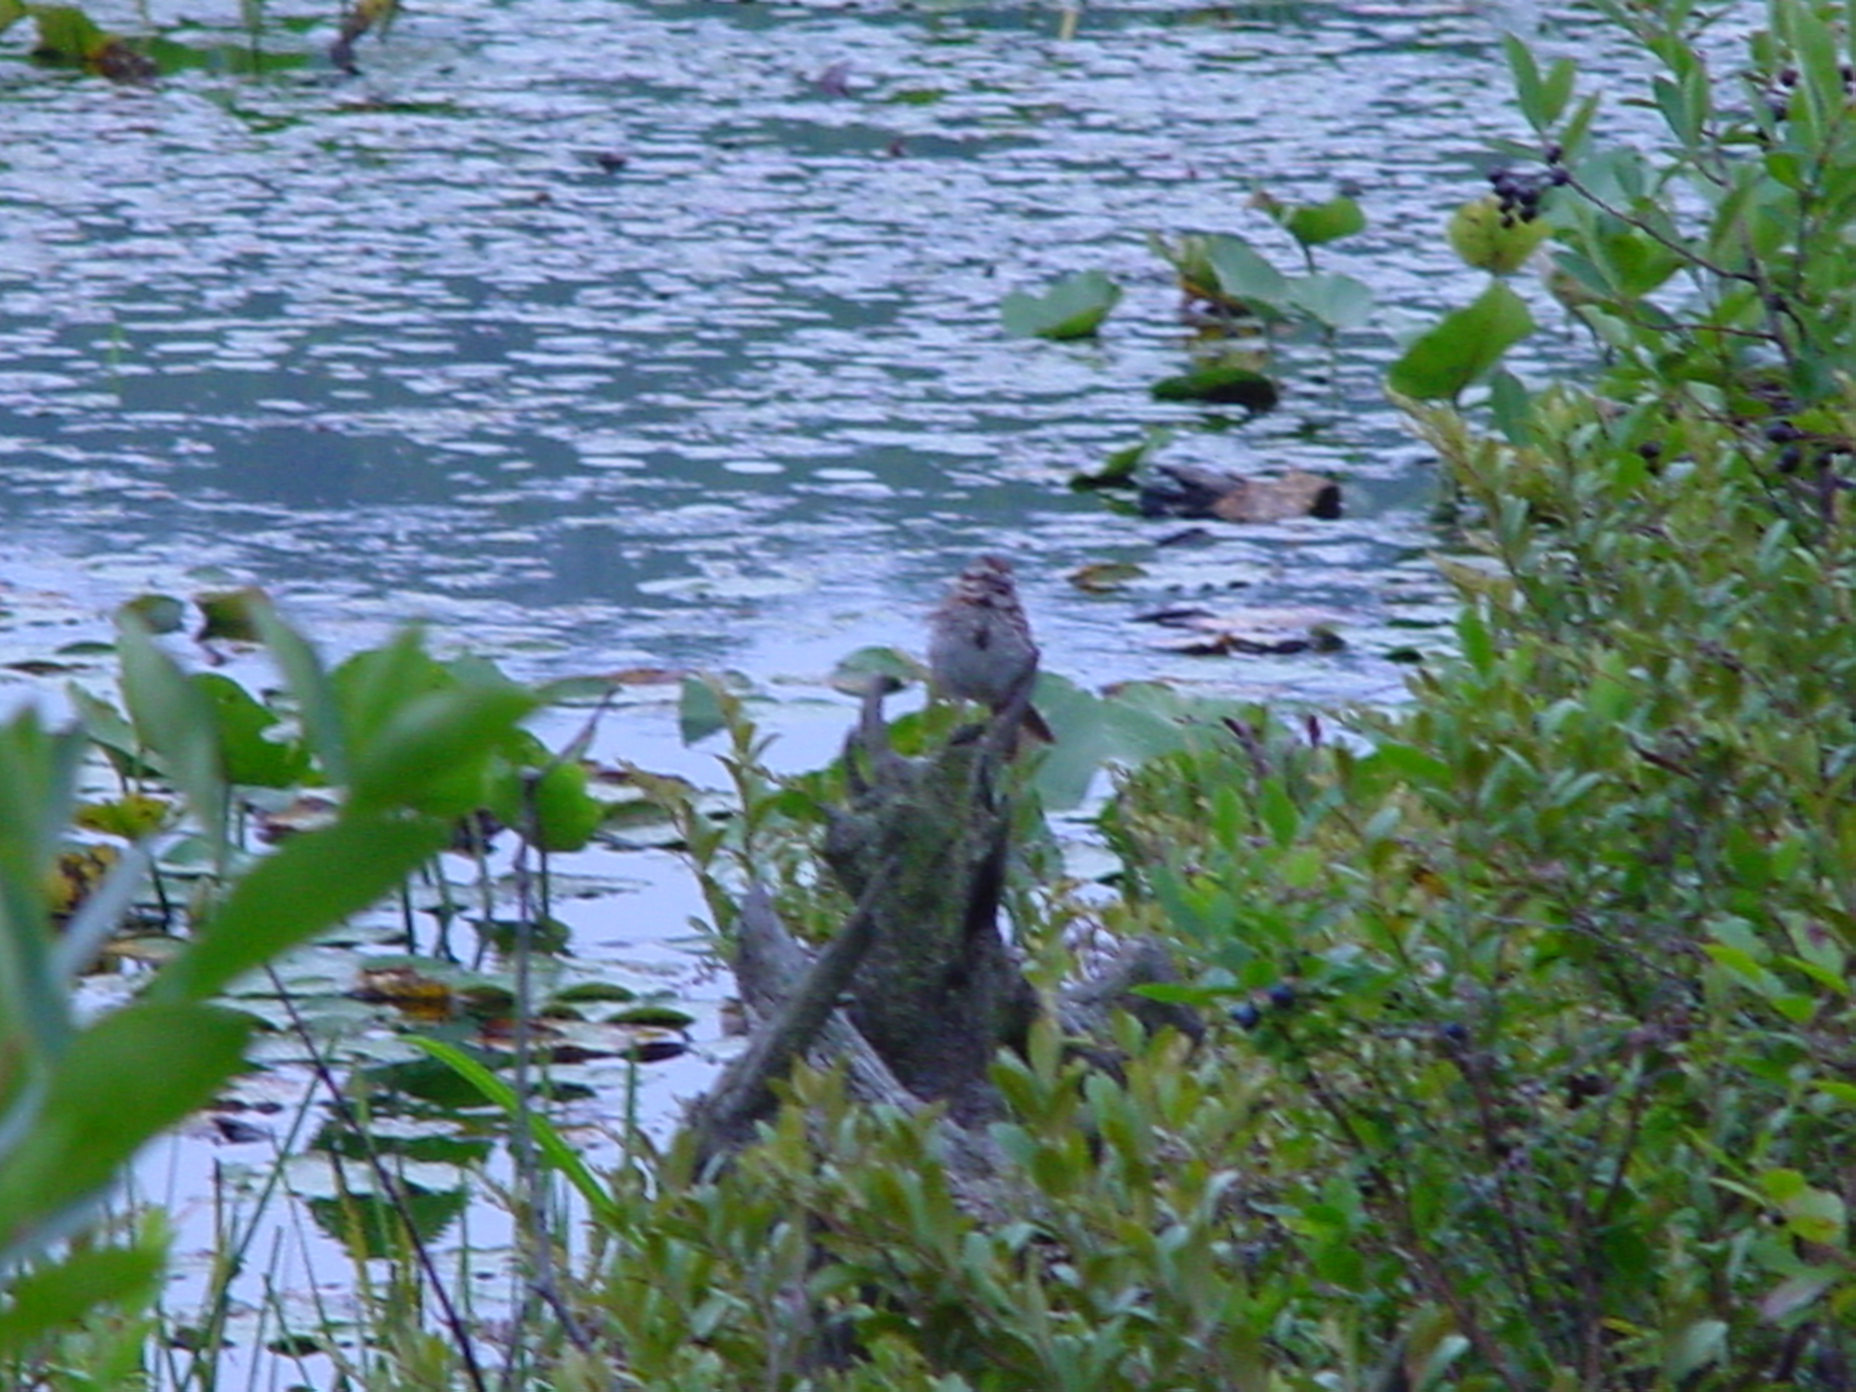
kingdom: Animalia
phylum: Chordata
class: Aves
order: Passeriformes
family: Passerellidae
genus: Melospiza
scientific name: Melospiza melodia
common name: Song sparrow
